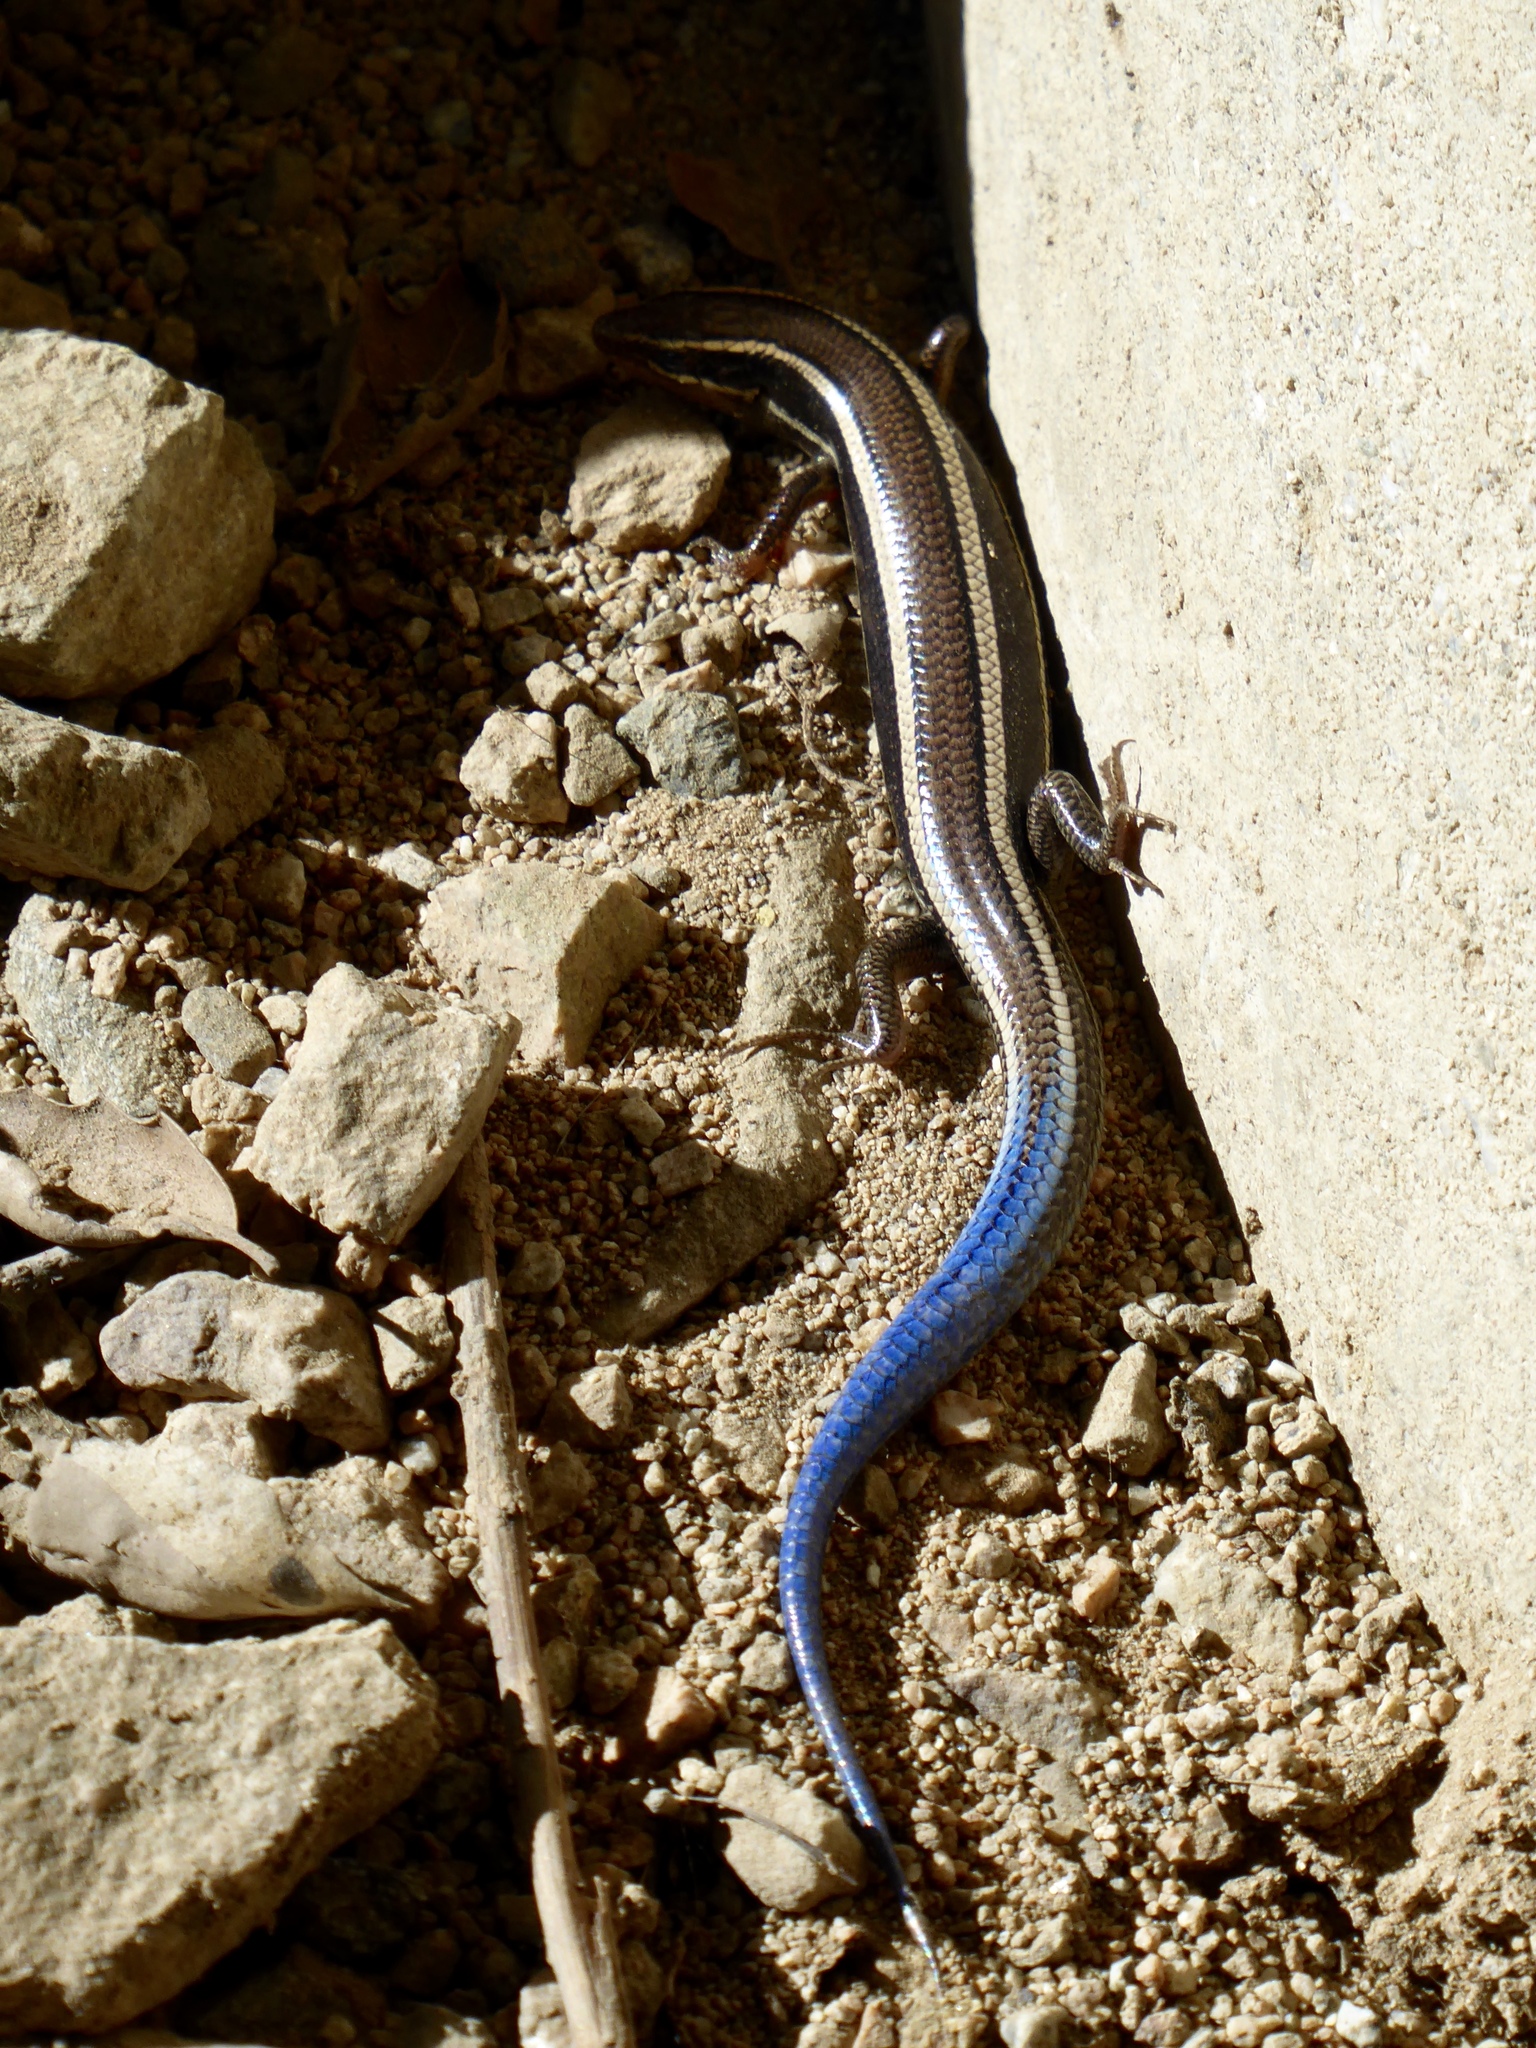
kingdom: Animalia
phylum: Chordata
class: Squamata
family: Scincidae
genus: Plestiodon
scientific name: Plestiodon skiltonianus
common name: Coronado island skink [interparietalis]
